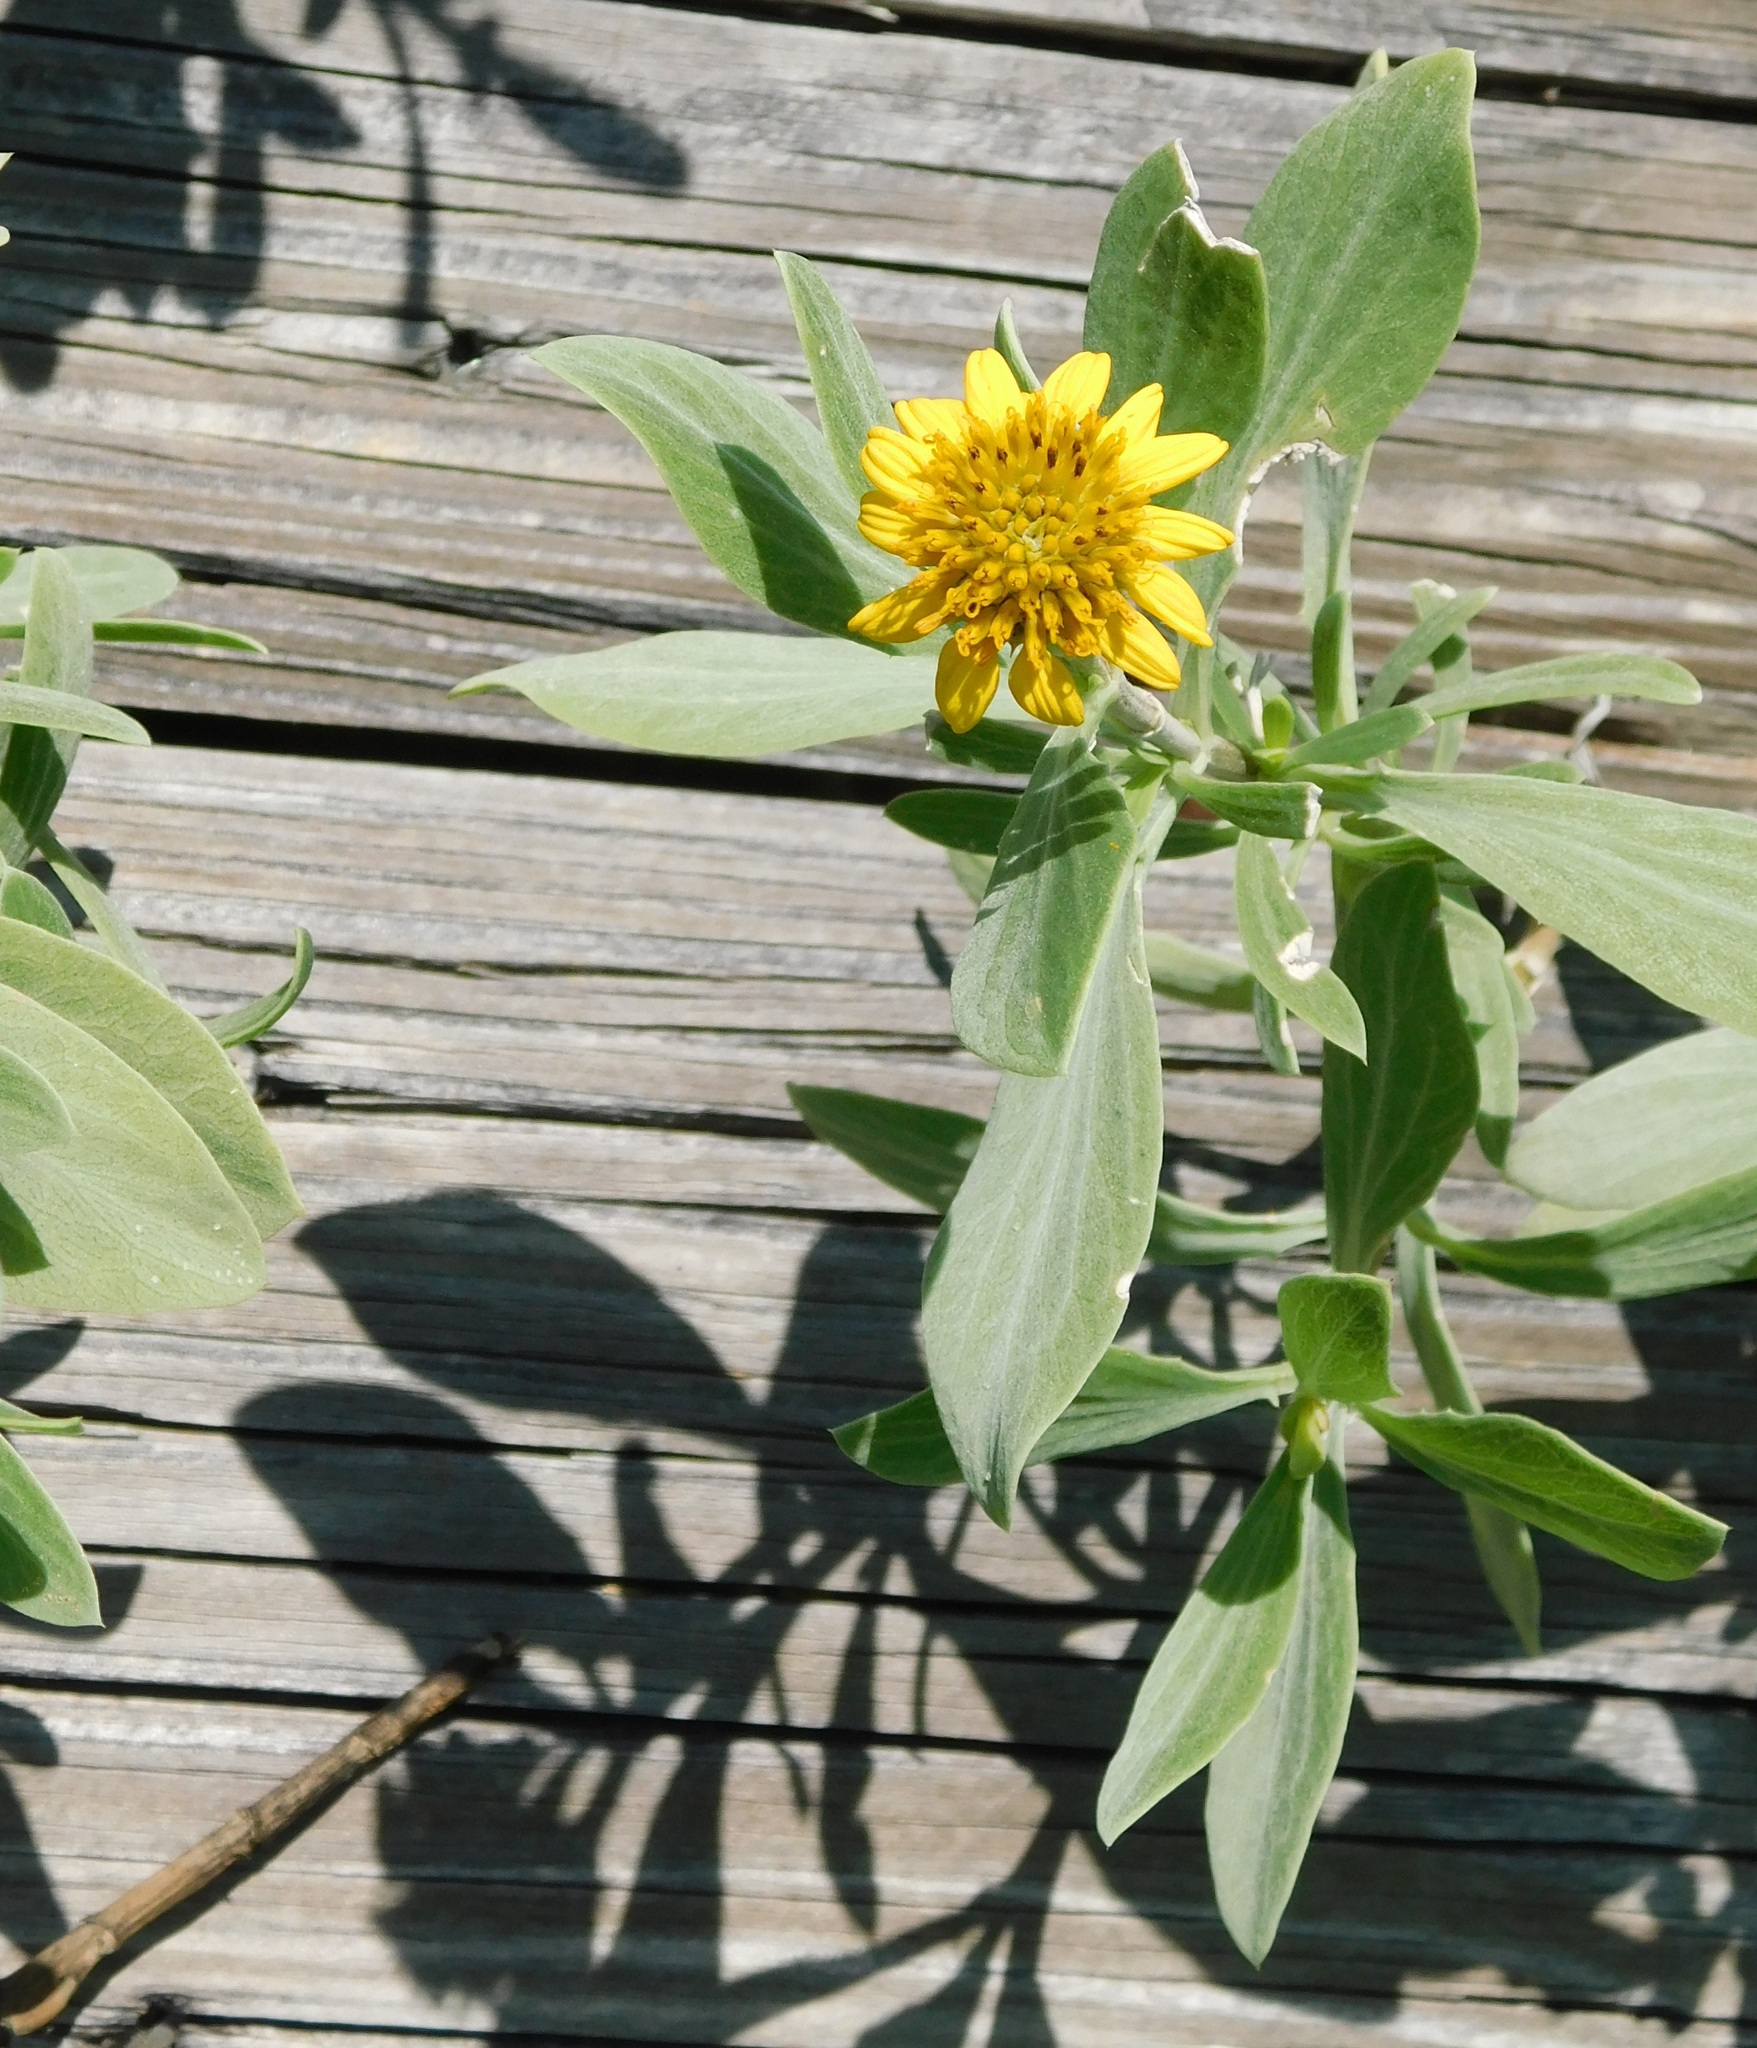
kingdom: Plantae
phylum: Tracheophyta
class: Magnoliopsida
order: Asterales
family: Asteraceae
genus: Borrichia
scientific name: Borrichia frutescens
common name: Sea oxeye
